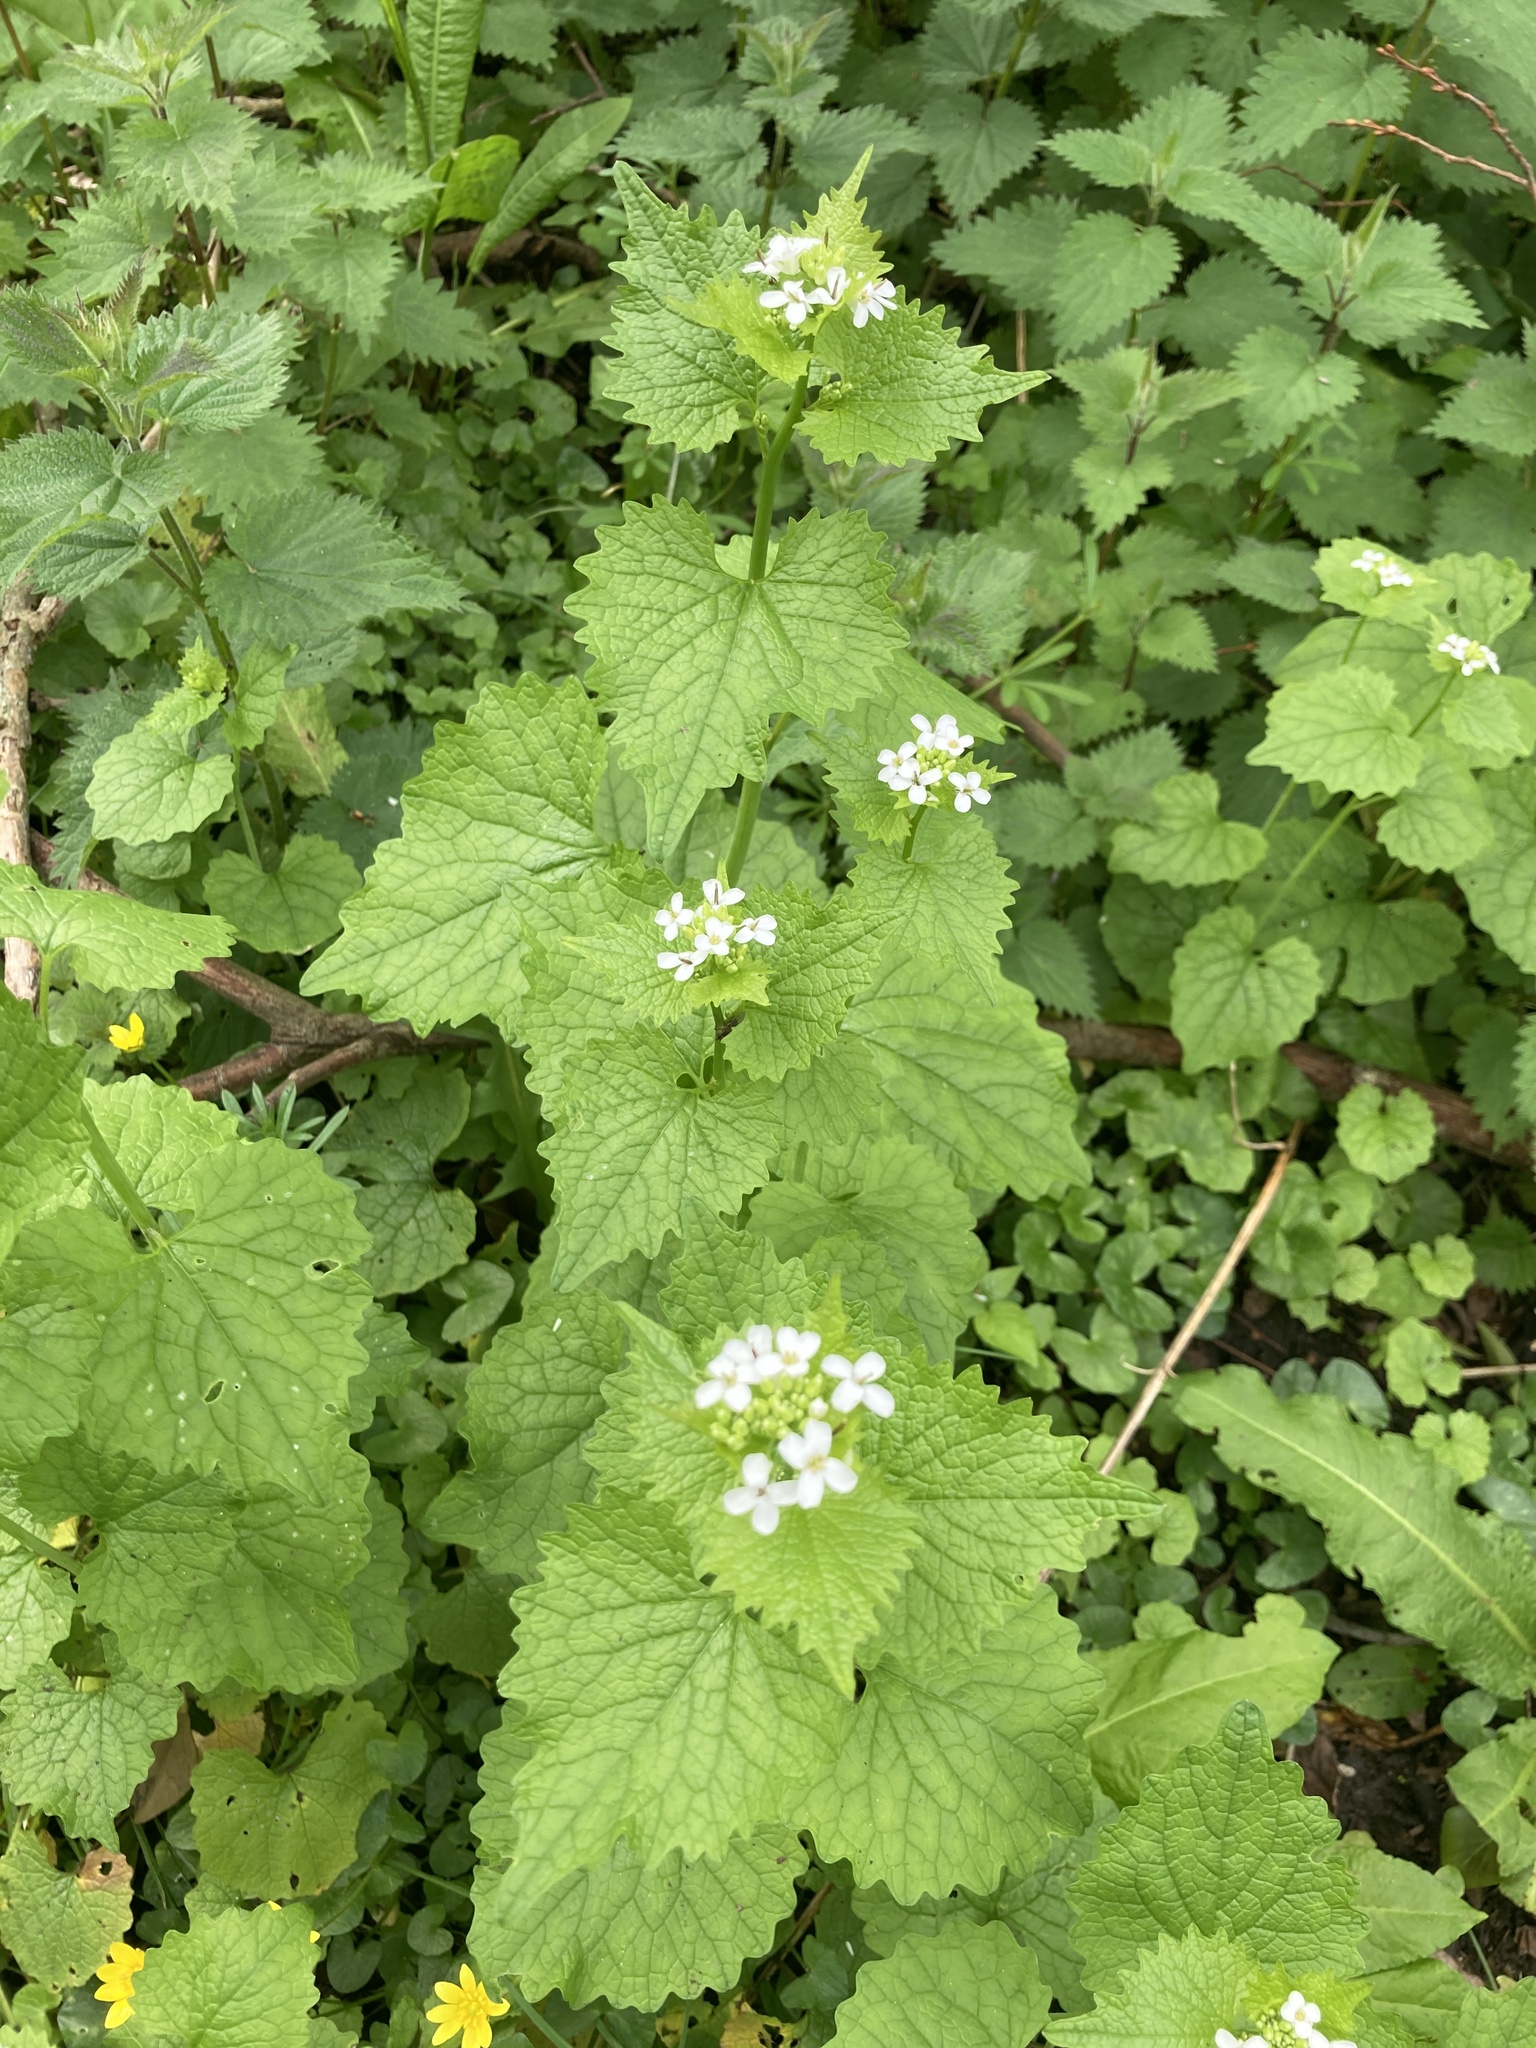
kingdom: Plantae
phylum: Tracheophyta
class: Magnoliopsida
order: Brassicales
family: Brassicaceae
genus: Alliaria
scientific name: Alliaria petiolata
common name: Garlic mustard
